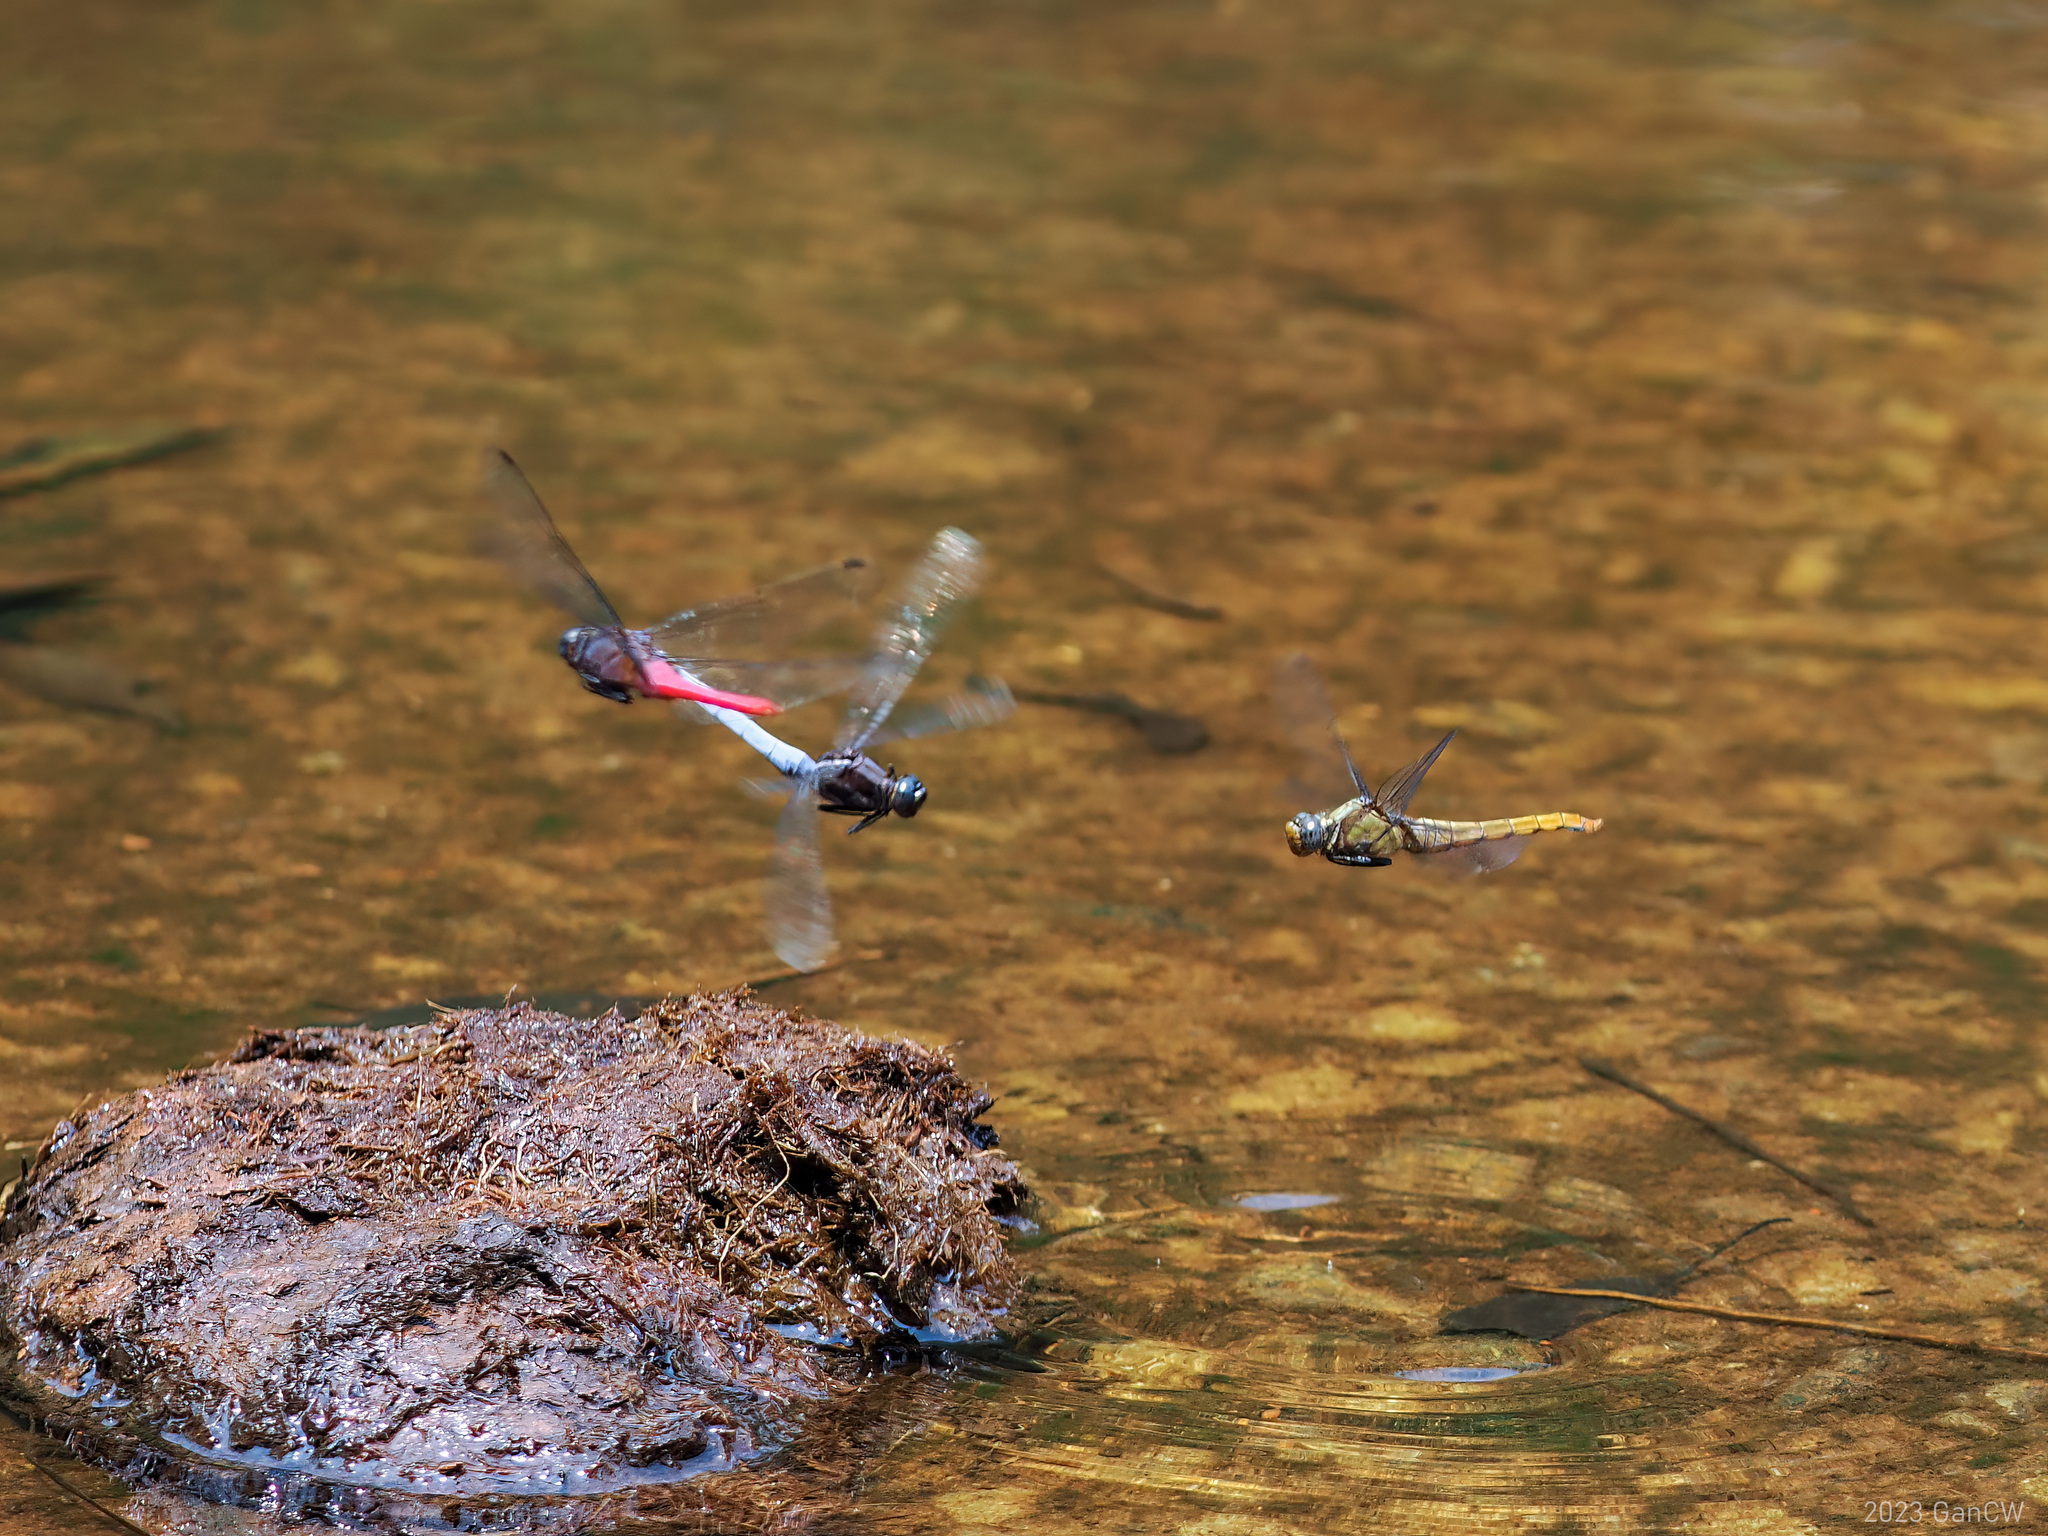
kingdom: Animalia
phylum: Arthropoda
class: Insecta
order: Odonata
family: Libellulidae
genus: Orthetrum
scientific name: Orthetrum glaucum
